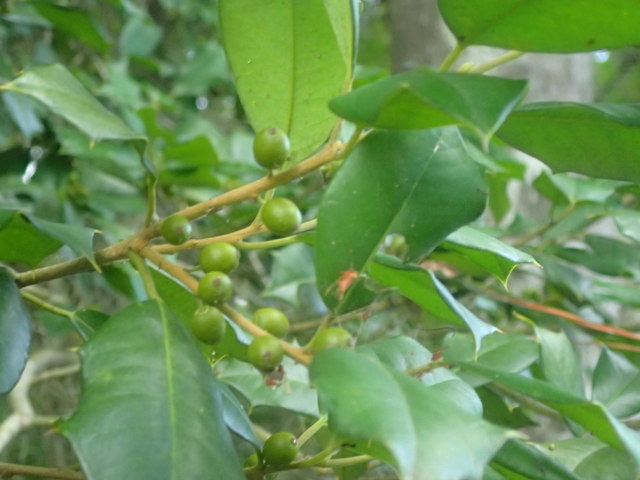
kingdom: Plantae
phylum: Tracheophyta
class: Magnoliopsida
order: Aquifoliales
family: Aquifoliaceae
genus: Ilex
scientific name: Ilex opaca
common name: American holly
